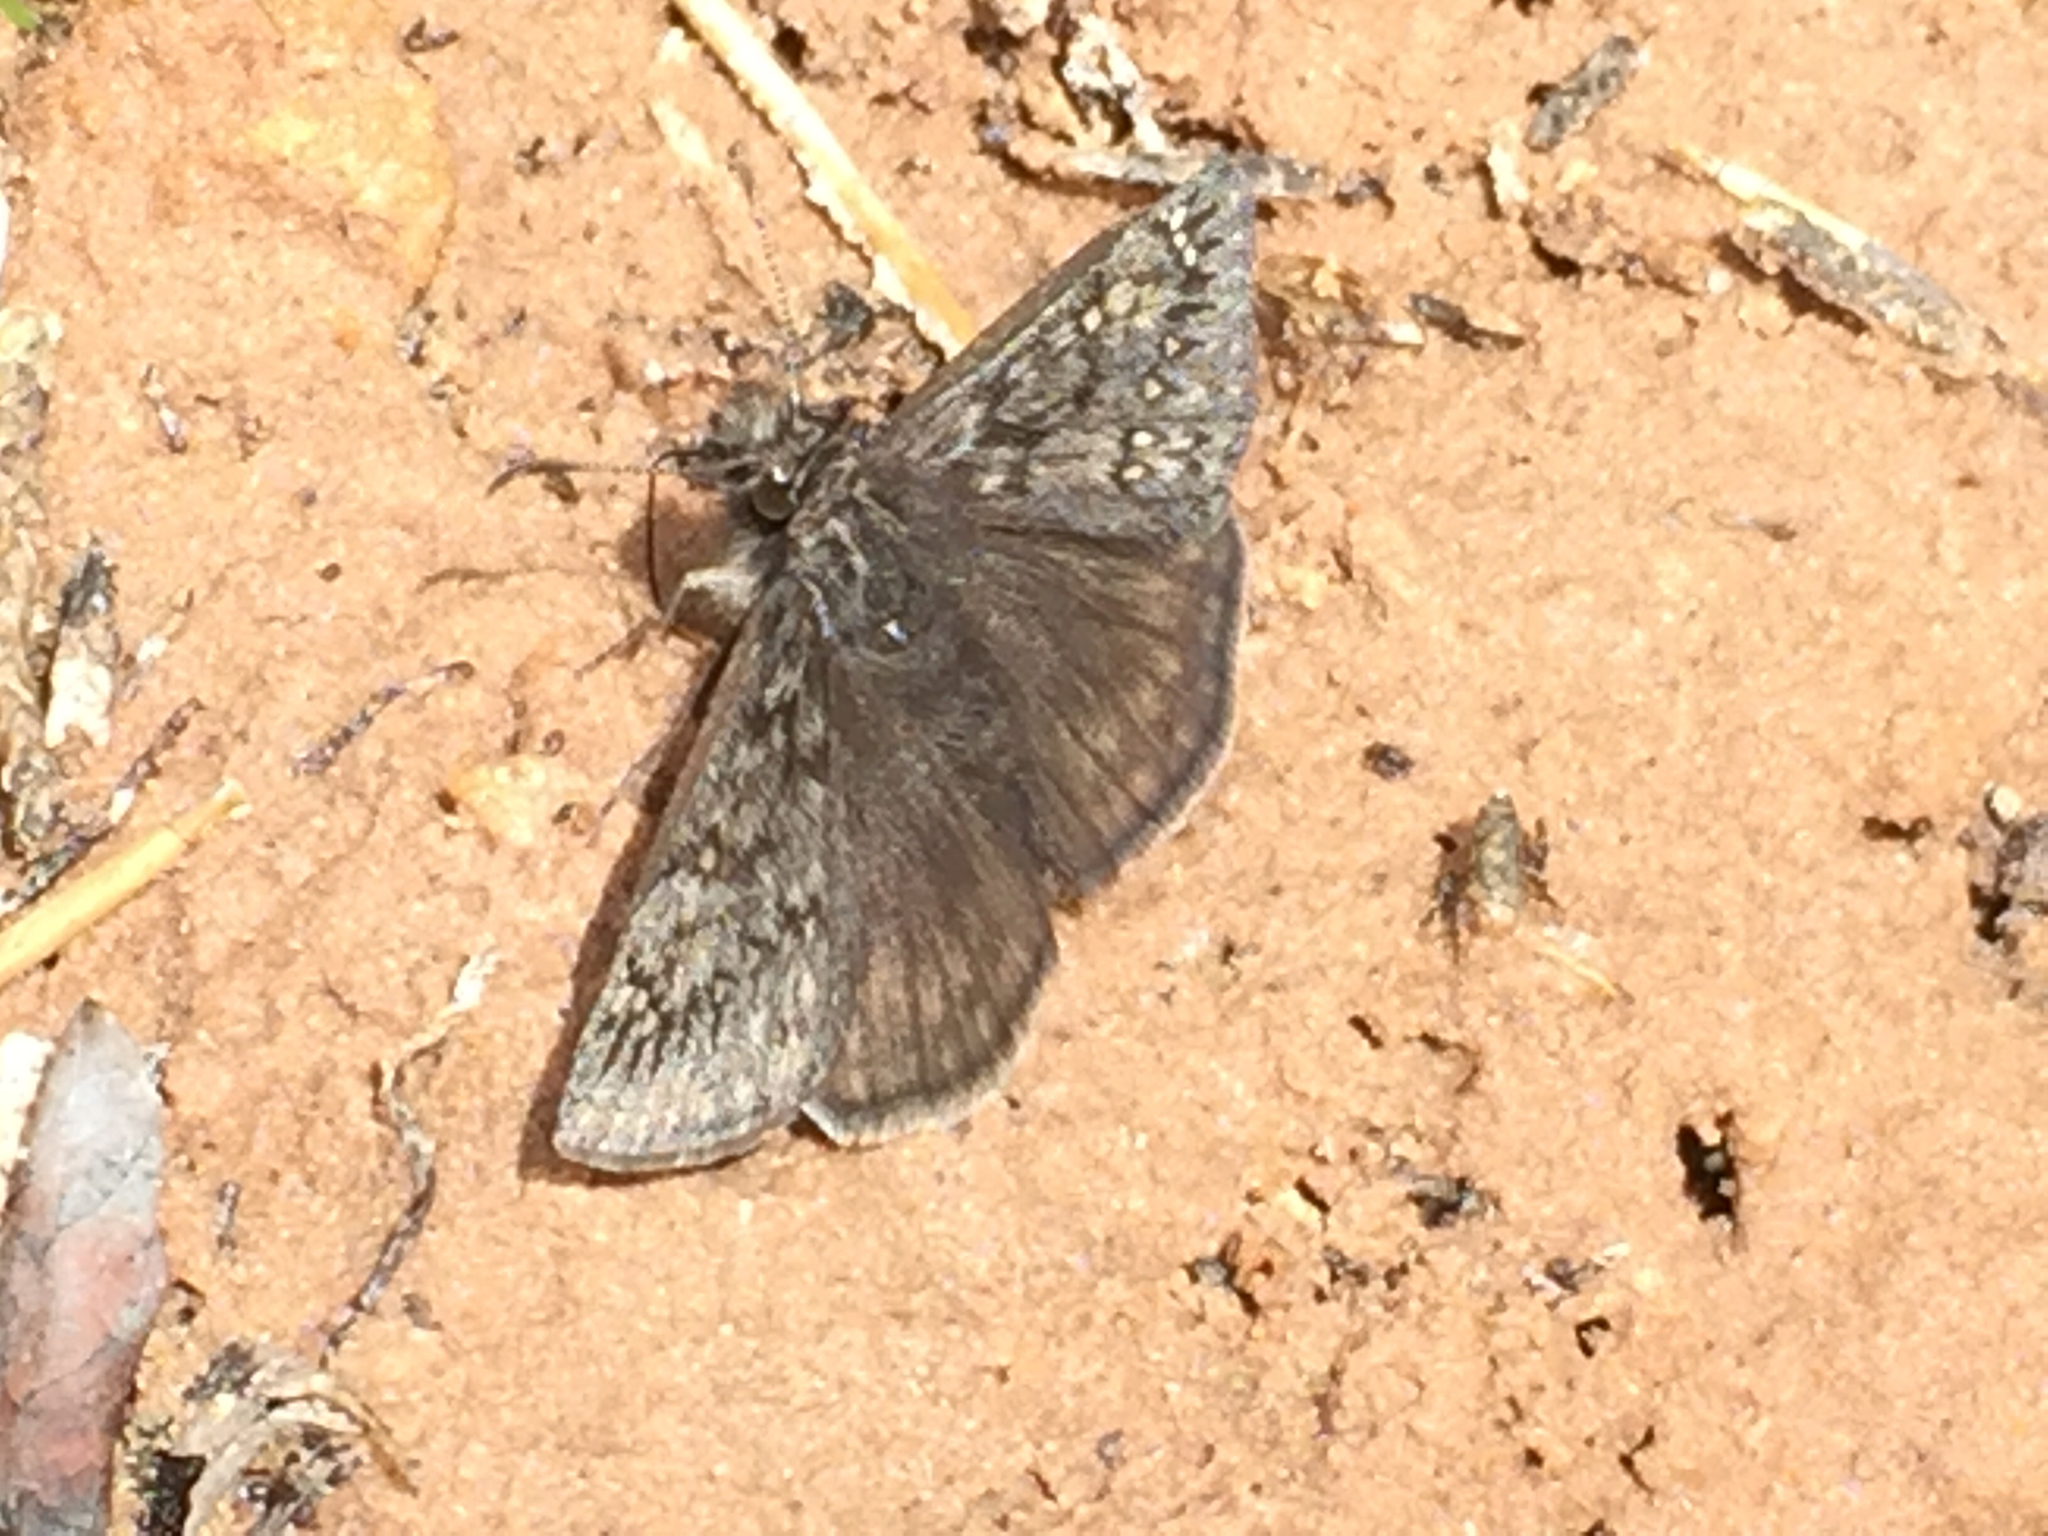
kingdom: Animalia
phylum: Arthropoda
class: Insecta
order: Lepidoptera
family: Hesperiidae
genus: Erynnis
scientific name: Erynnis telemachus
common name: Rocky mountain duskywing
